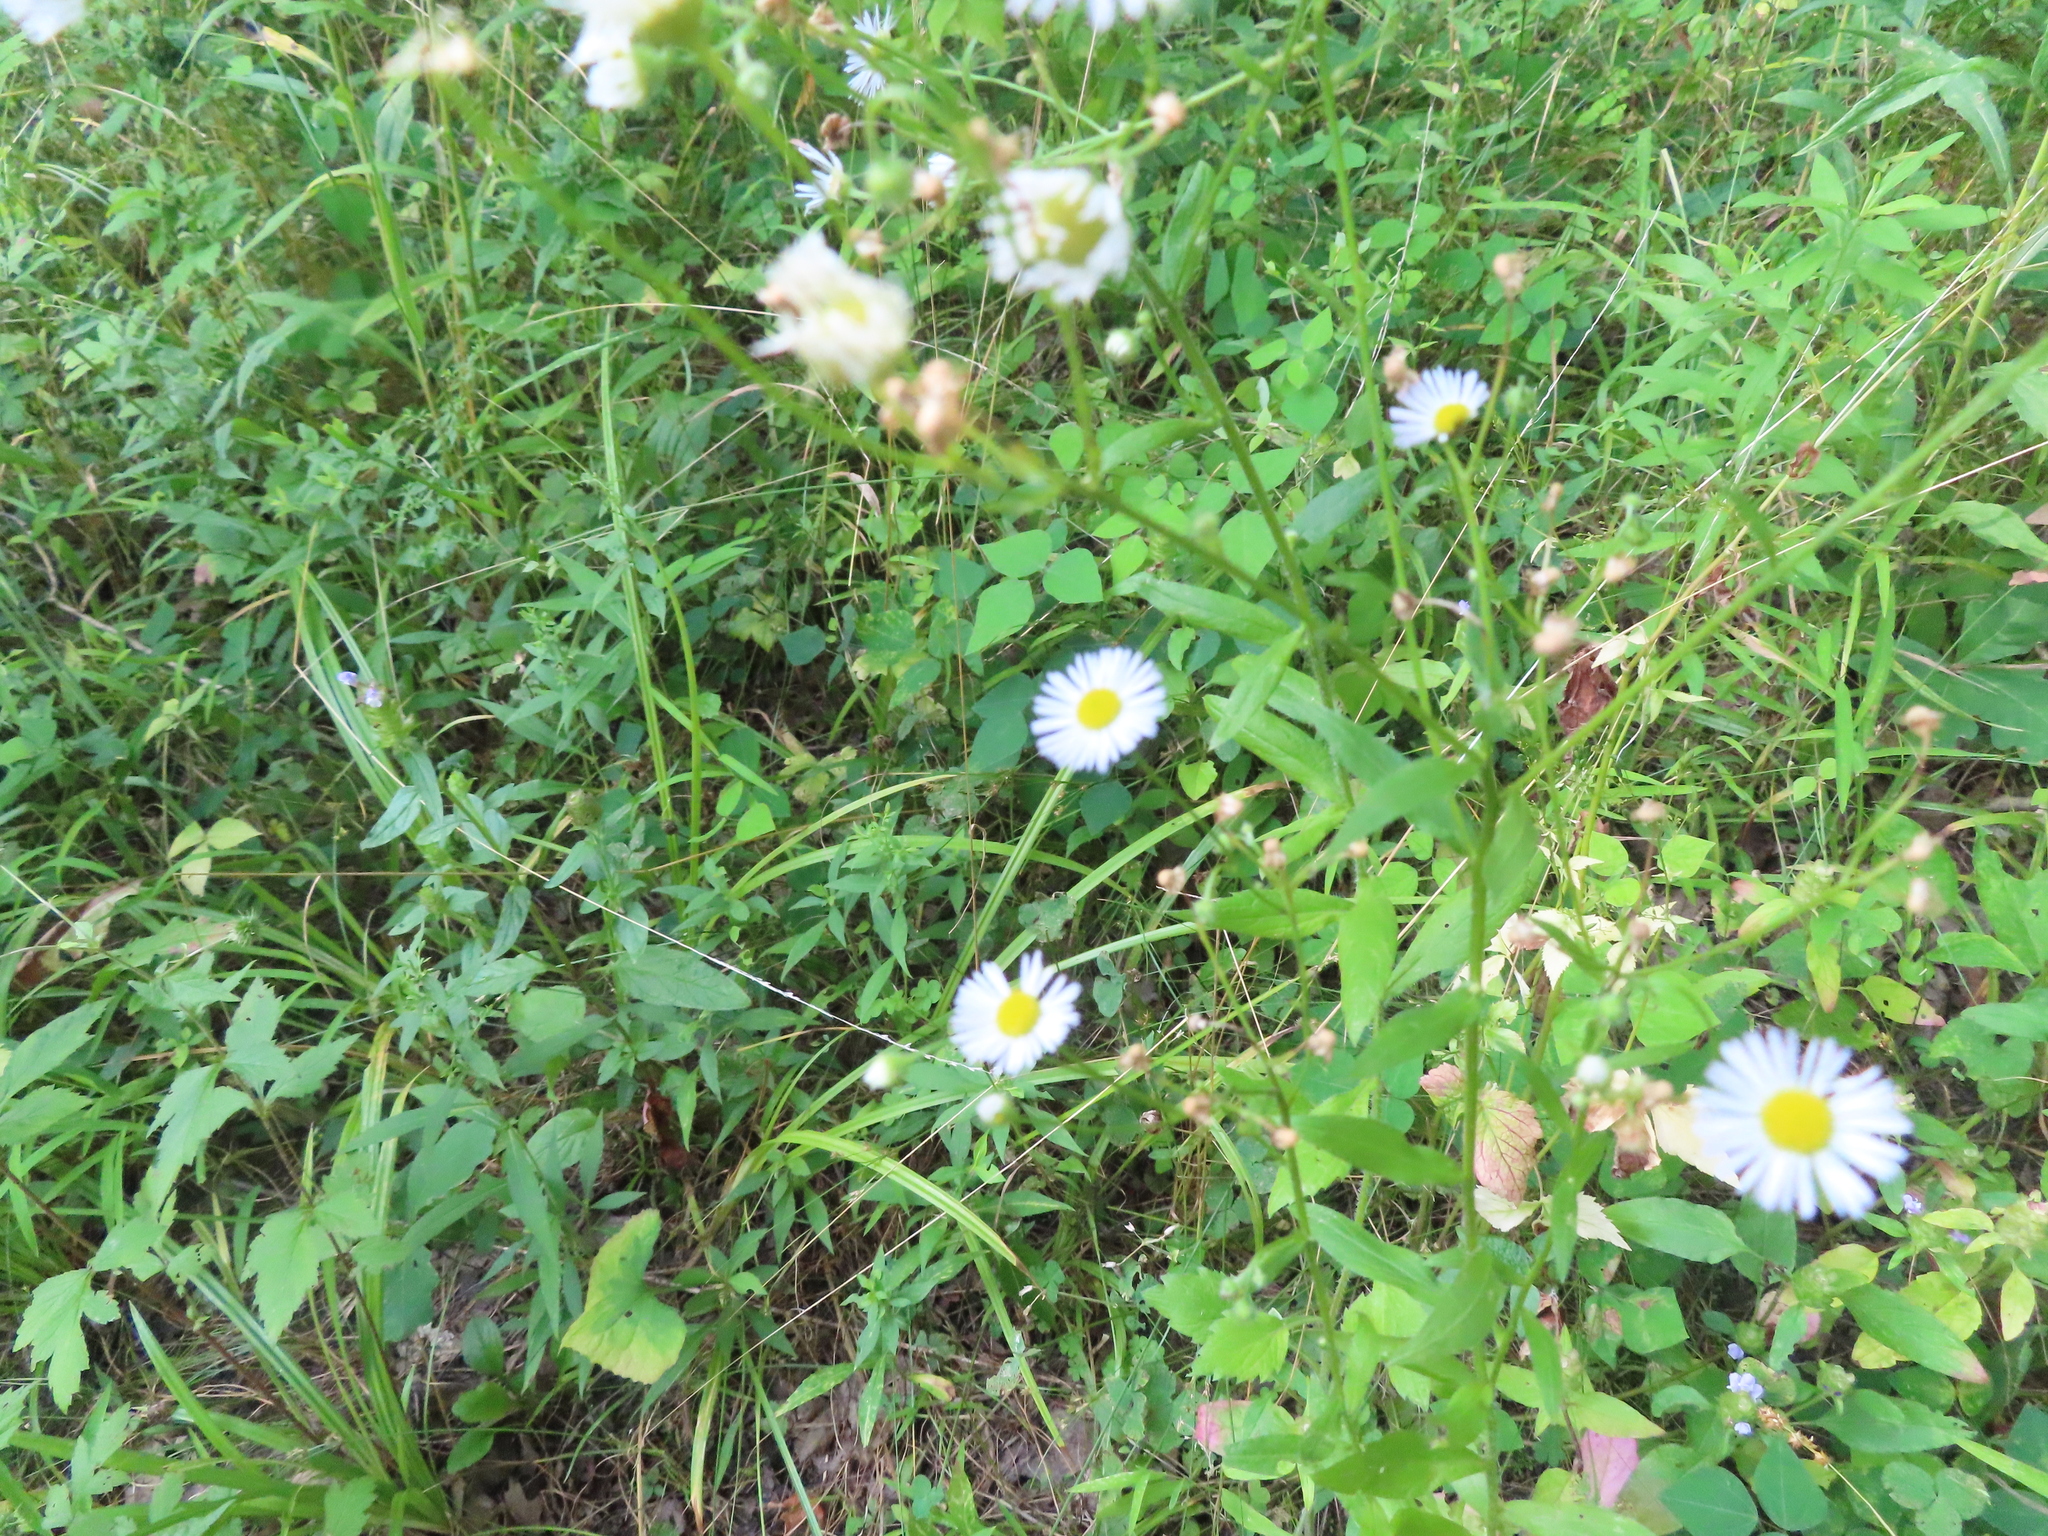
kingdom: Plantae
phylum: Tracheophyta
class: Magnoliopsida
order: Asterales
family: Asteraceae
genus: Erigeron
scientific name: Erigeron annuus
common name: Tall fleabane
